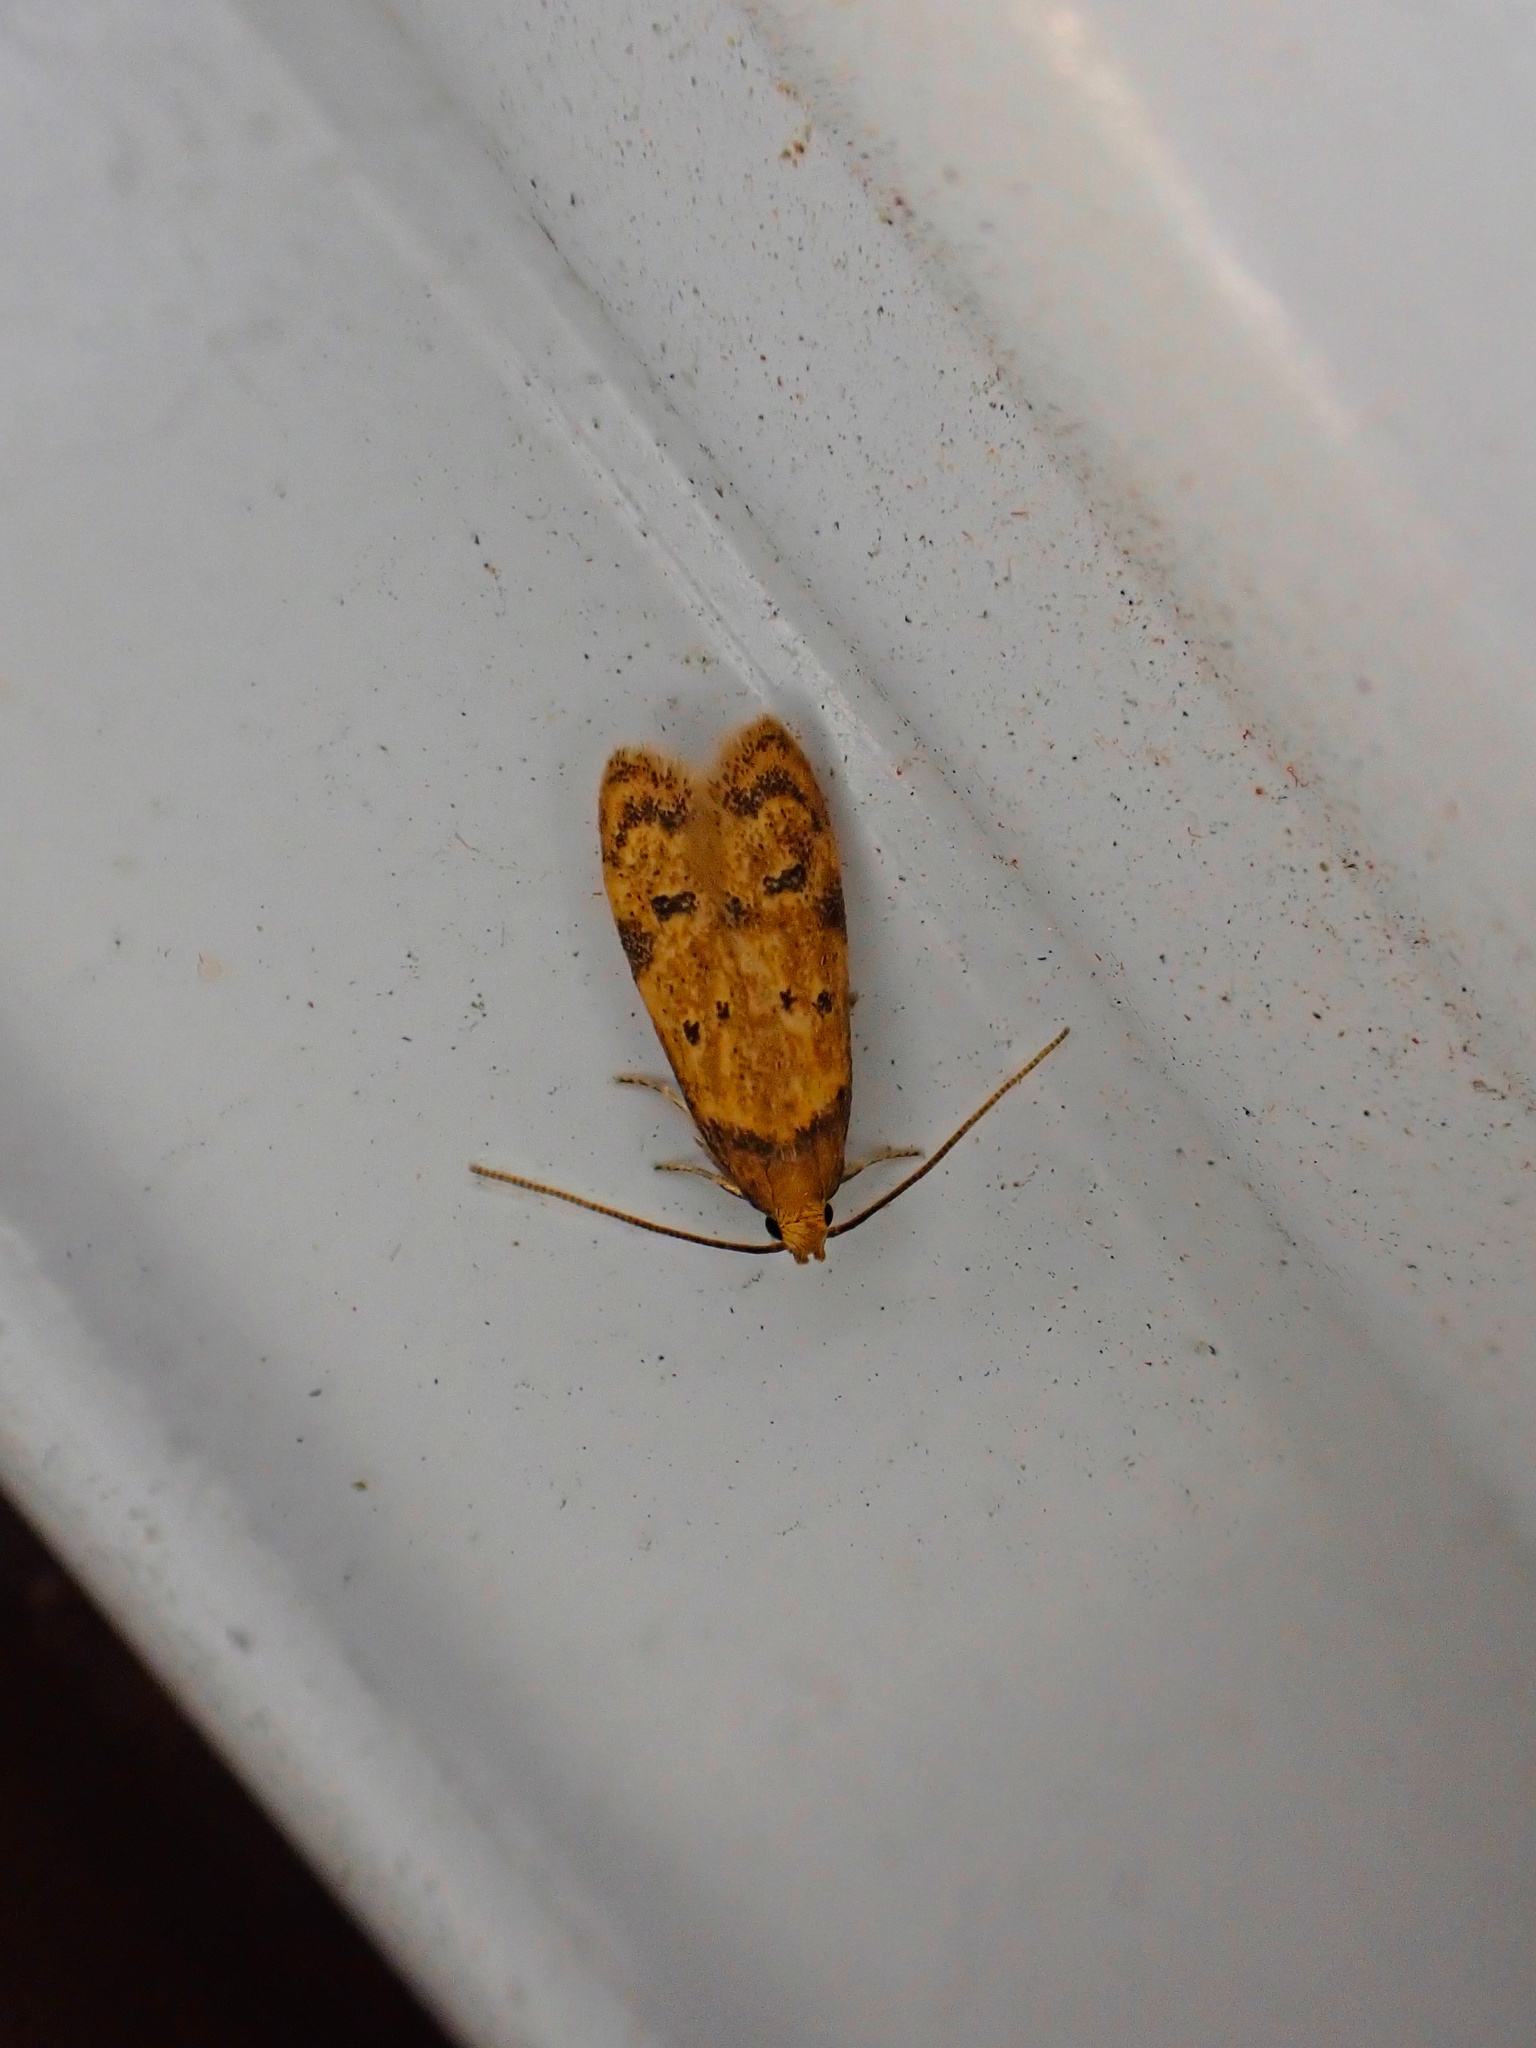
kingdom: Animalia
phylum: Arthropoda
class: Insecta
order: Lepidoptera
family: Autostichidae
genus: Gerdana
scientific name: Gerdana caritella
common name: Gerdana moth
